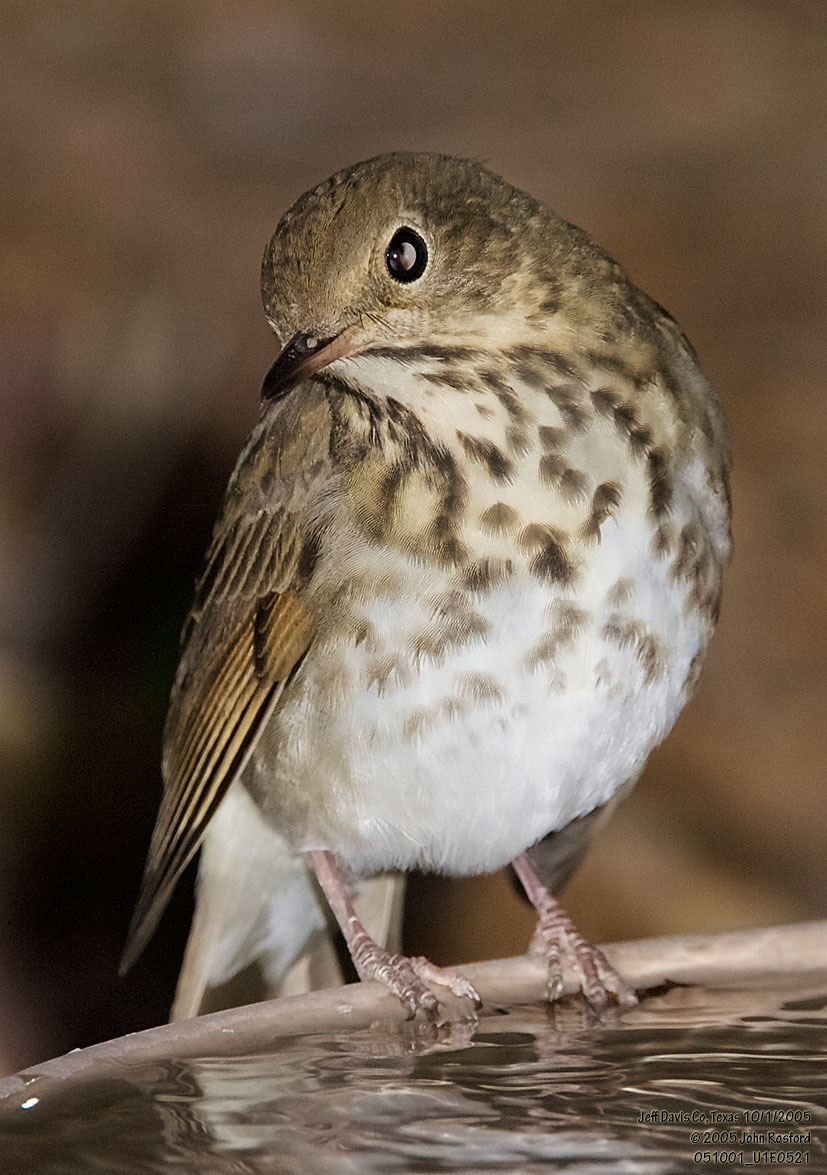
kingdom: Animalia
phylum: Chordata
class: Aves
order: Passeriformes
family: Turdidae
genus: Catharus
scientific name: Catharus guttatus
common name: Hermit thrush
